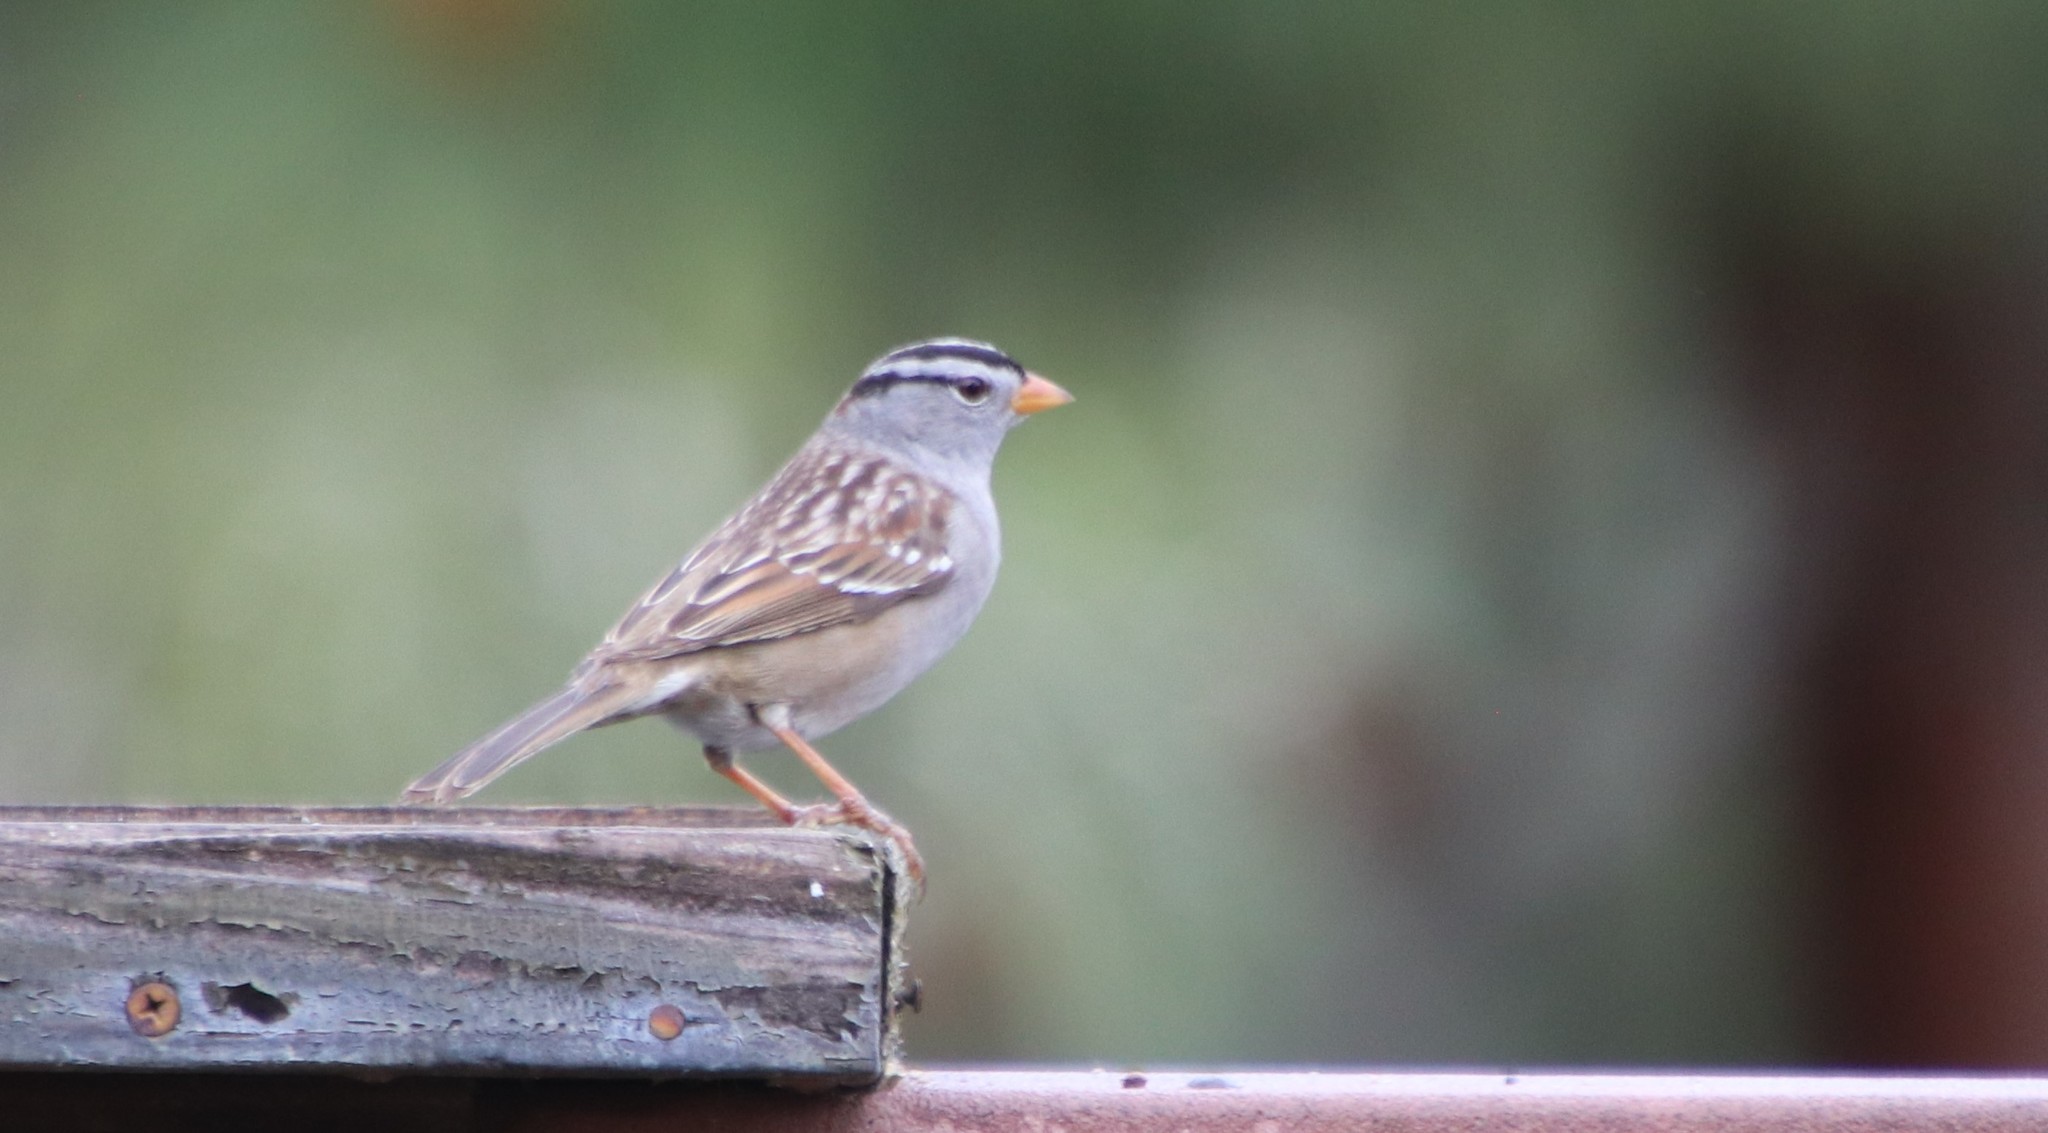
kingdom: Animalia
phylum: Chordata
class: Aves
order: Passeriformes
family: Passerellidae
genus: Zonotrichia
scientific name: Zonotrichia leucophrys
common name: White-crowned sparrow
